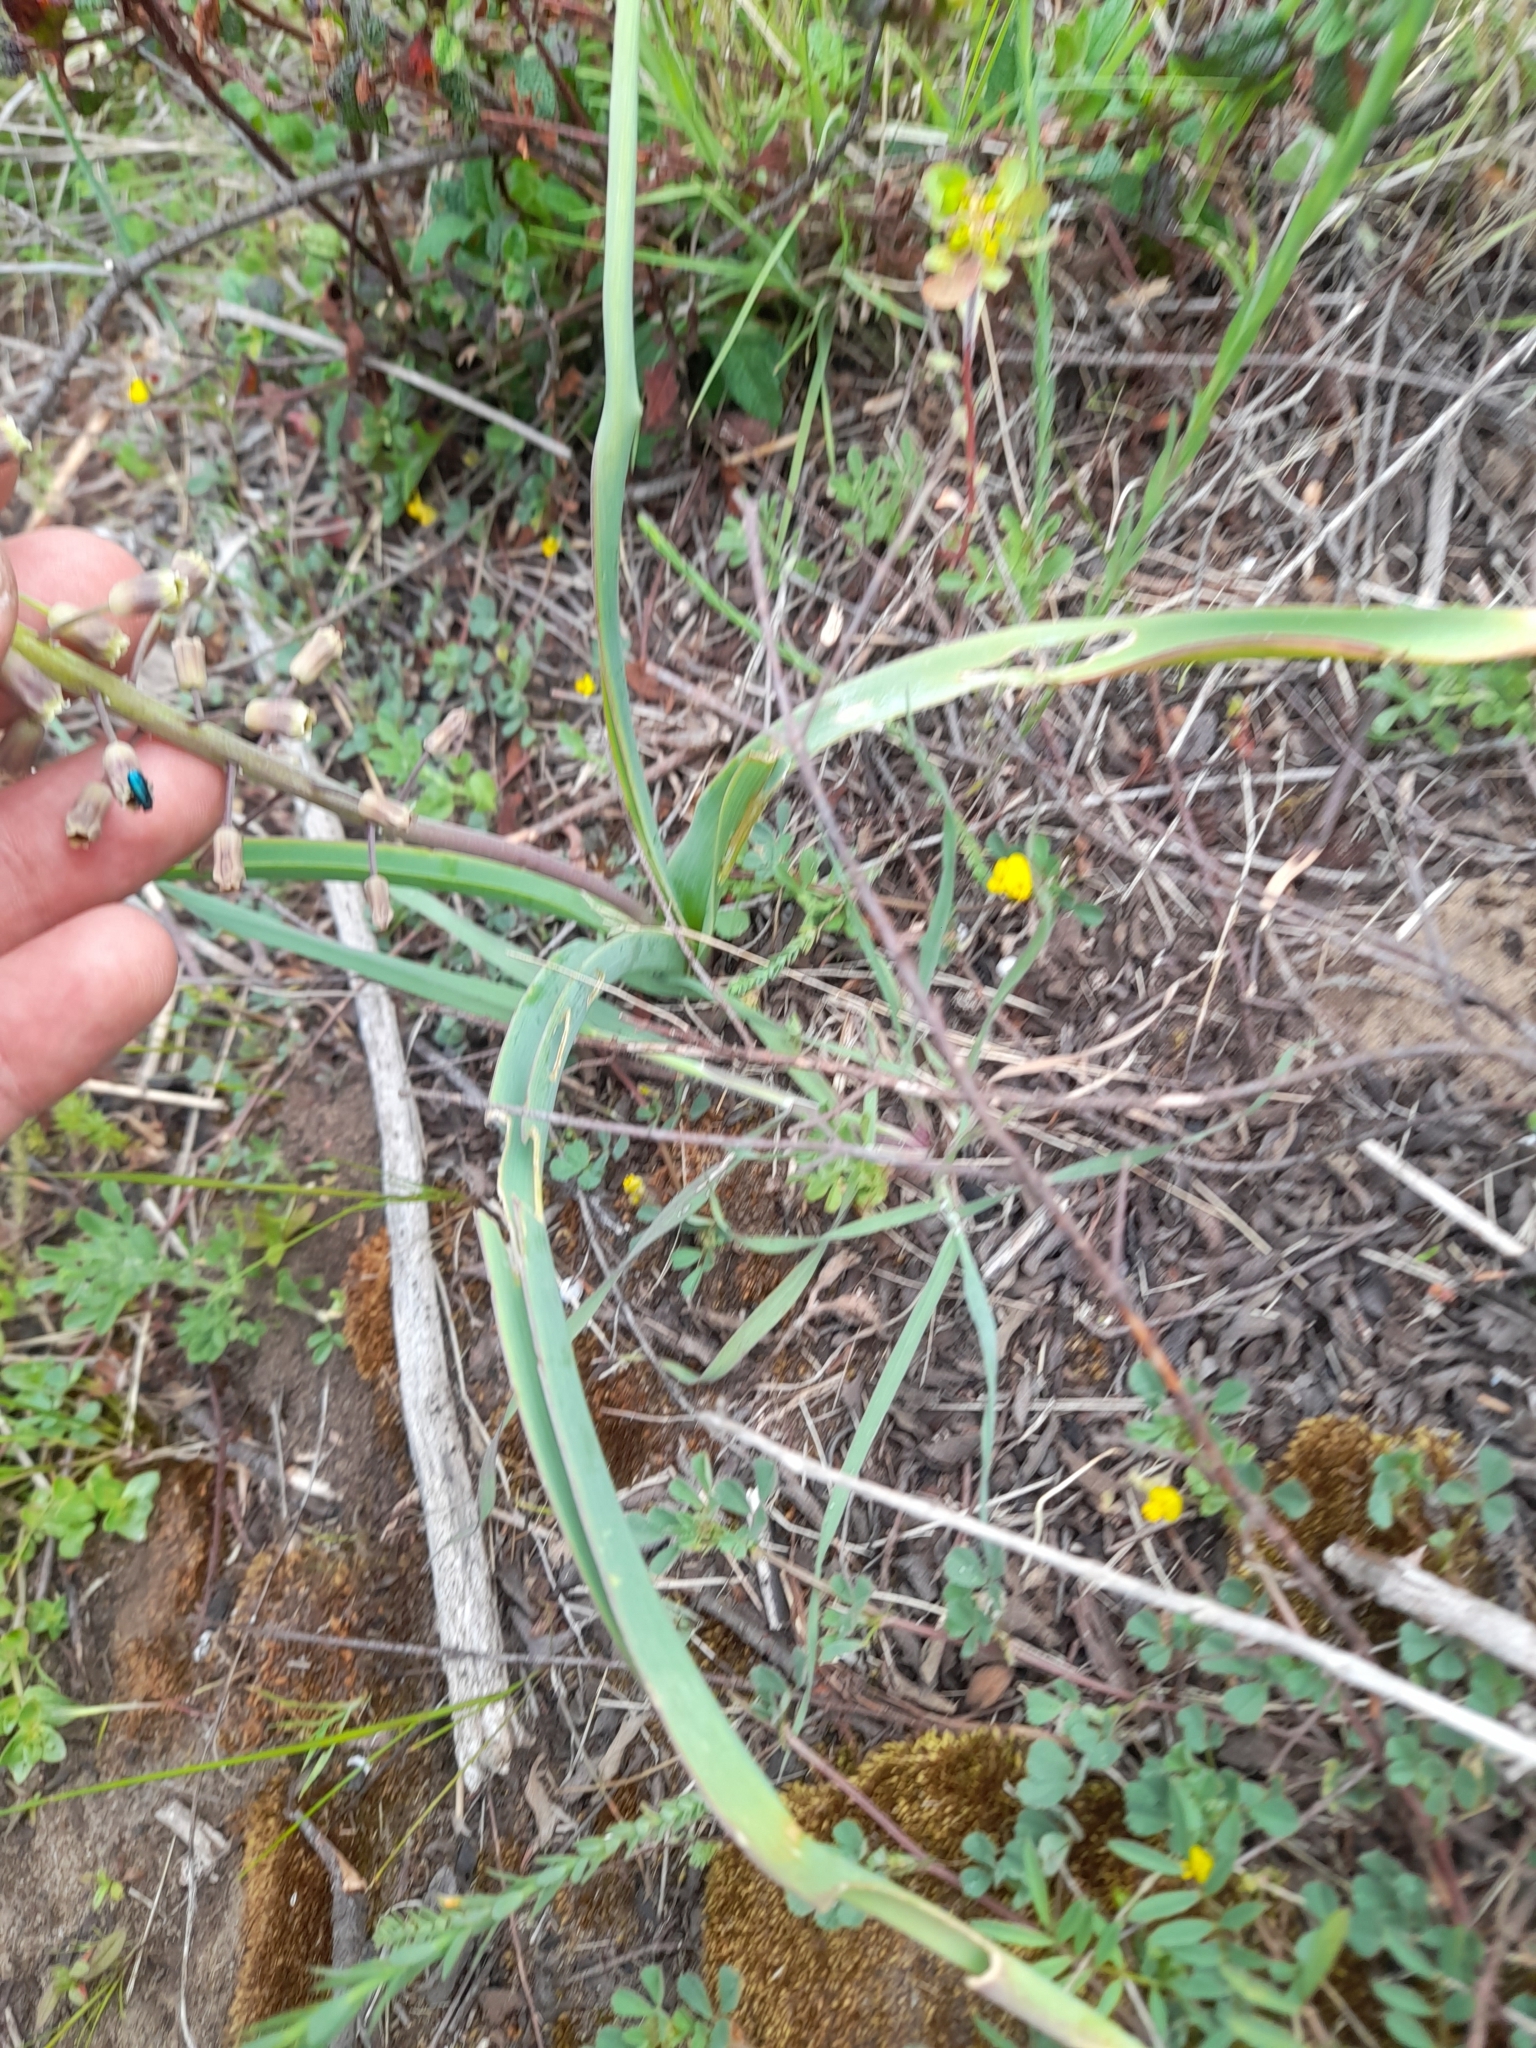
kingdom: Plantae
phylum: Tracheophyta
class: Liliopsida
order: Asparagales
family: Asparagaceae
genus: Muscari
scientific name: Muscari comosum
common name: Tassel hyacinth
